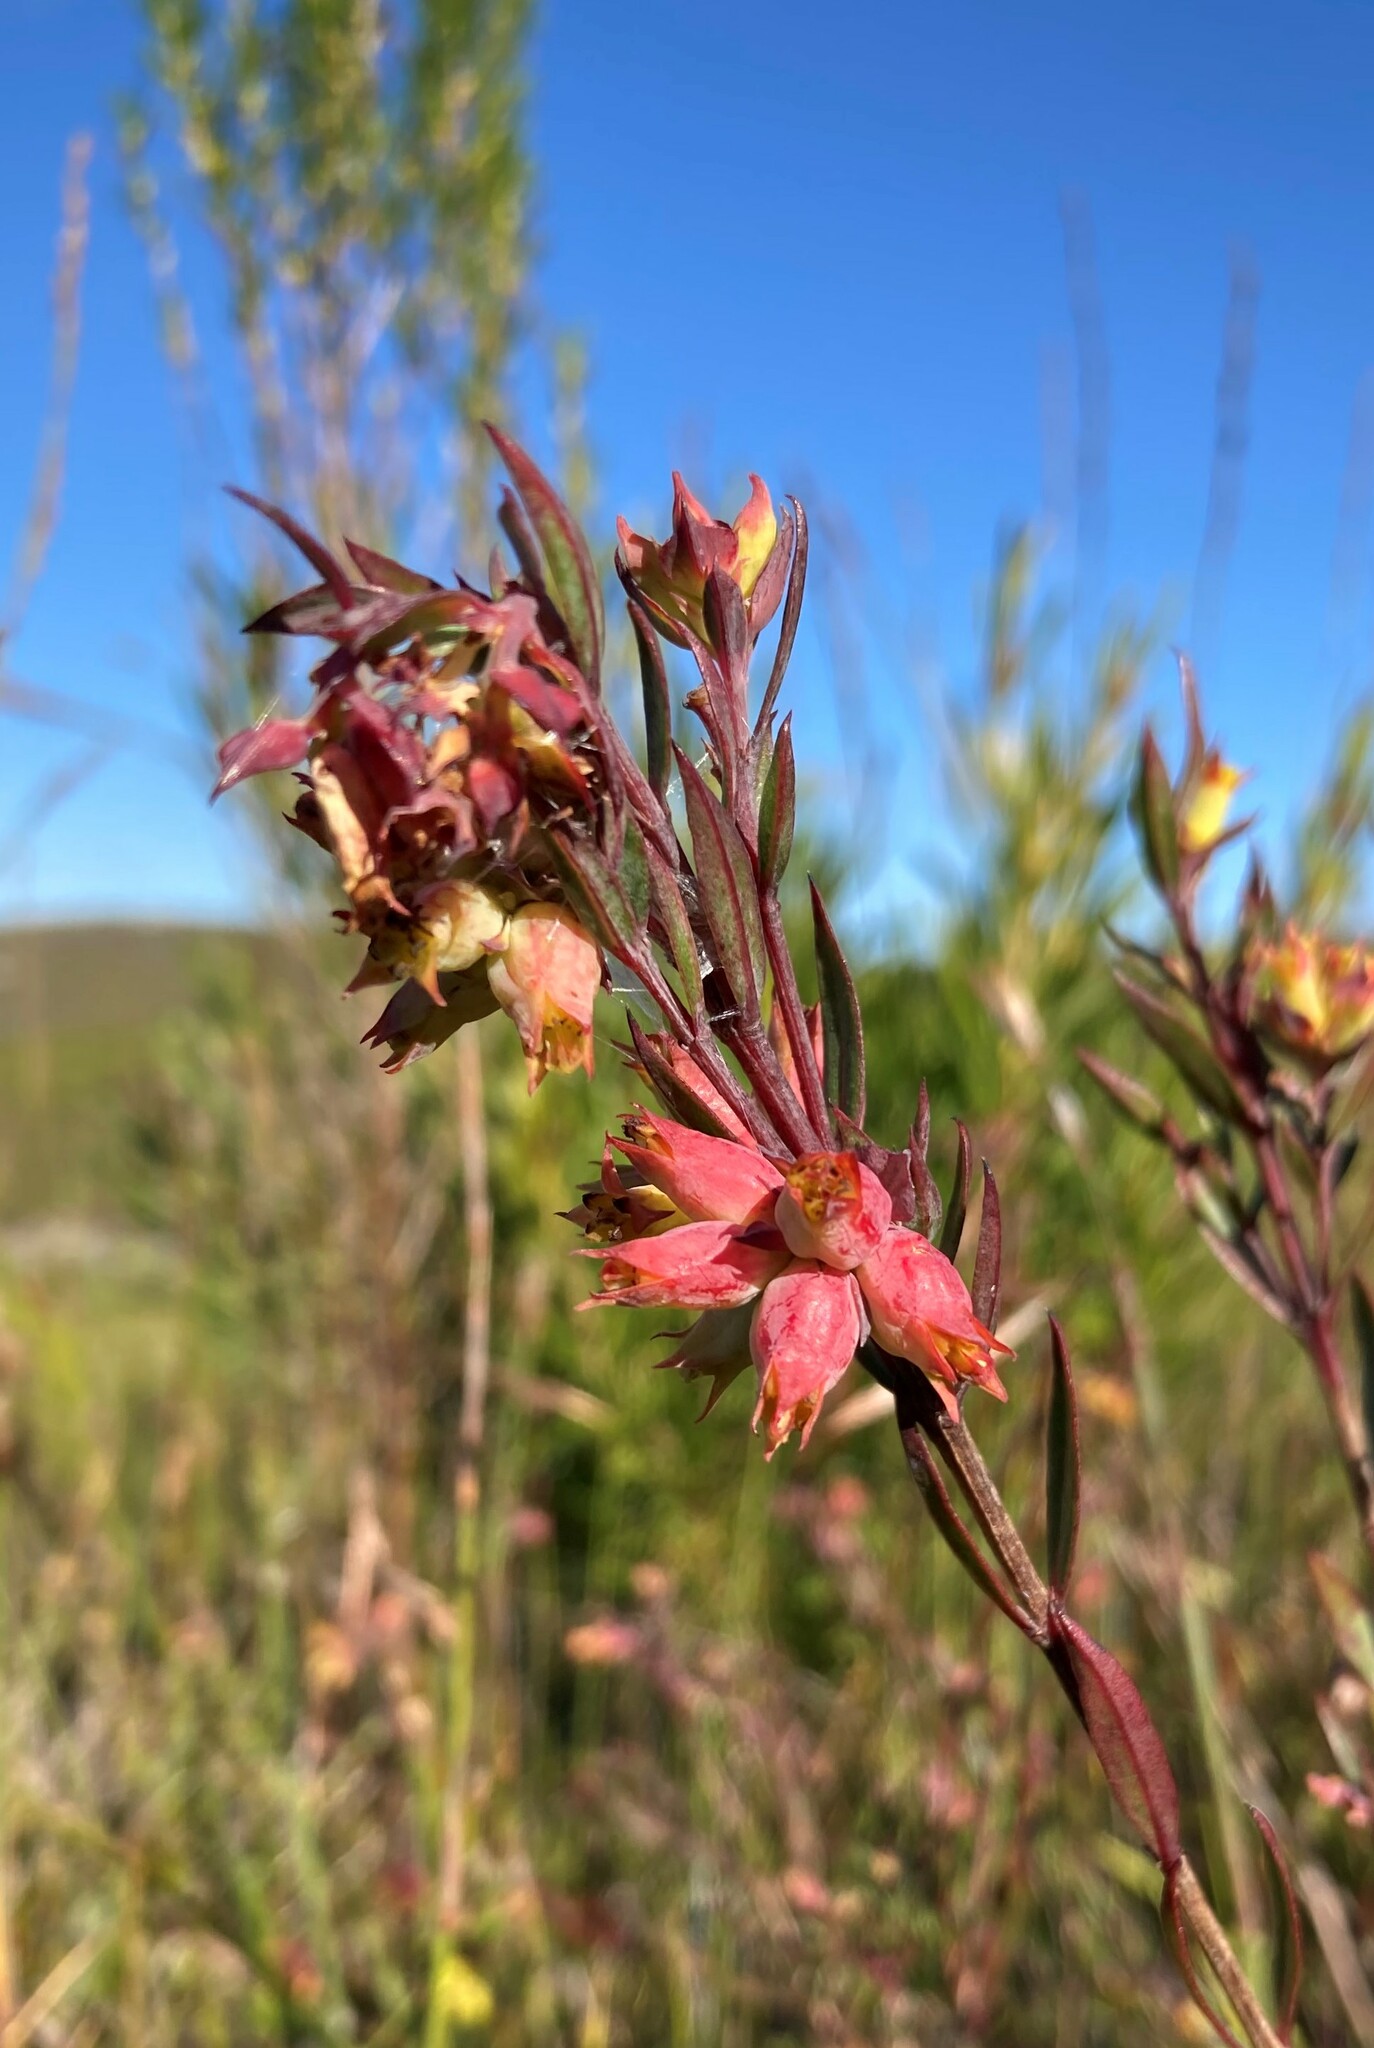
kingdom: Plantae
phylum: Tracheophyta
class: Magnoliopsida
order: Myrtales
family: Penaeaceae
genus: Penaea
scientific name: Penaea acutifolia
